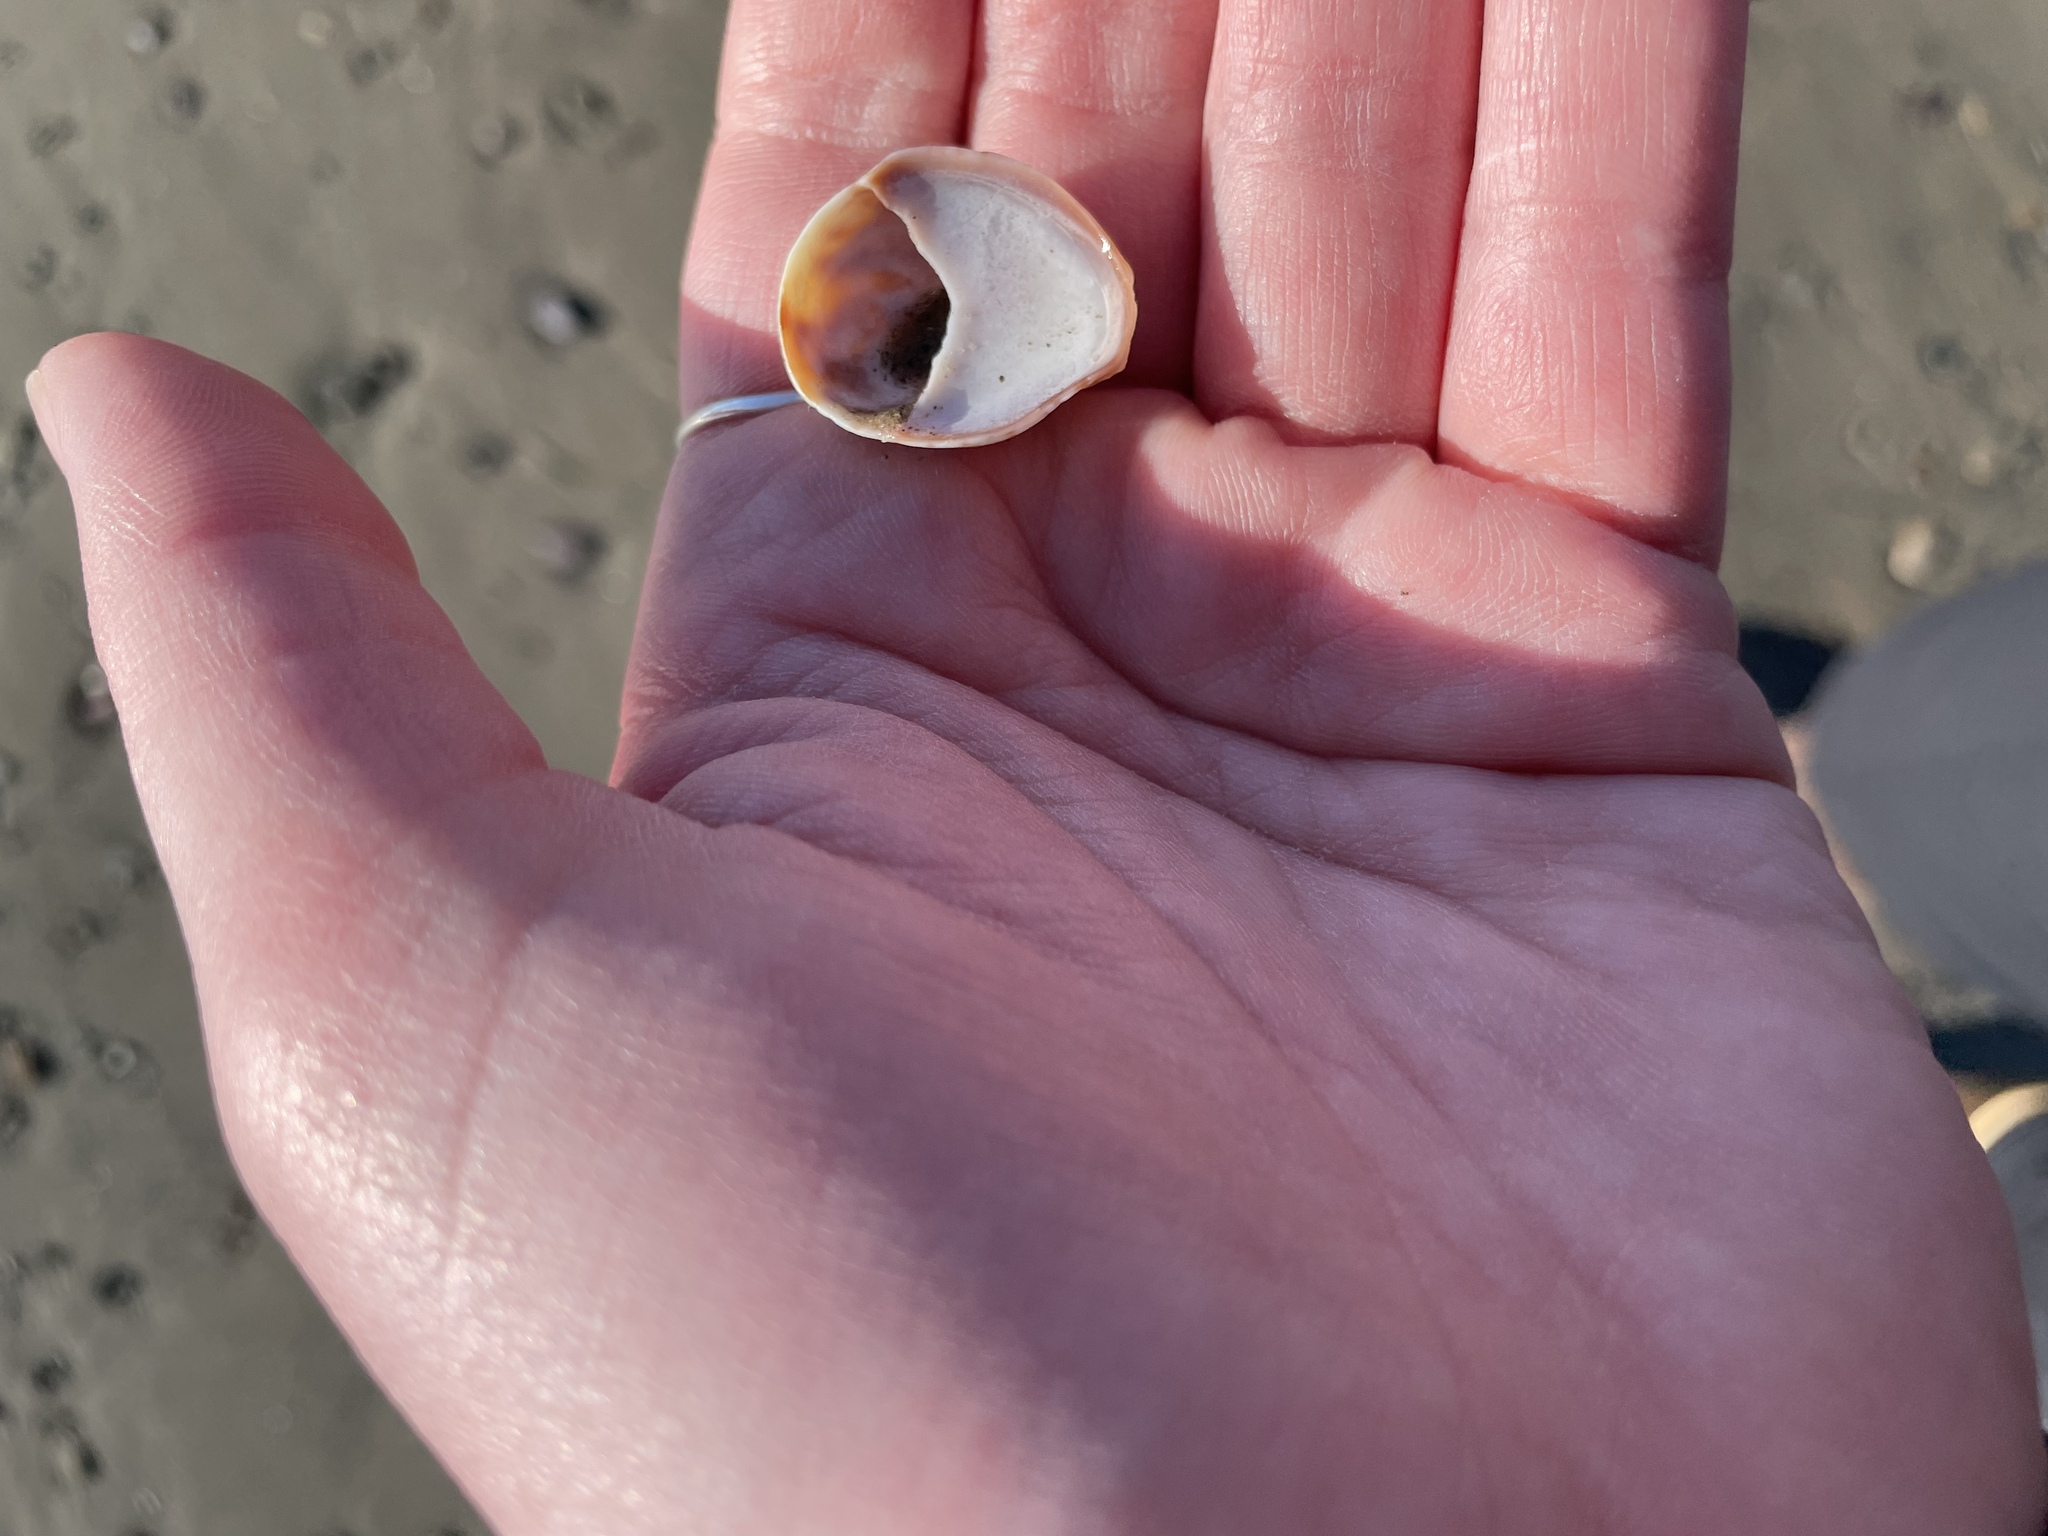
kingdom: Animalia
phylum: Mollusca
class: Gastropoda
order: Littorinimorpha
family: Calyptraeidae
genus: Crepidula
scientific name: Crepidula fornicata
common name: Slipper limpet
